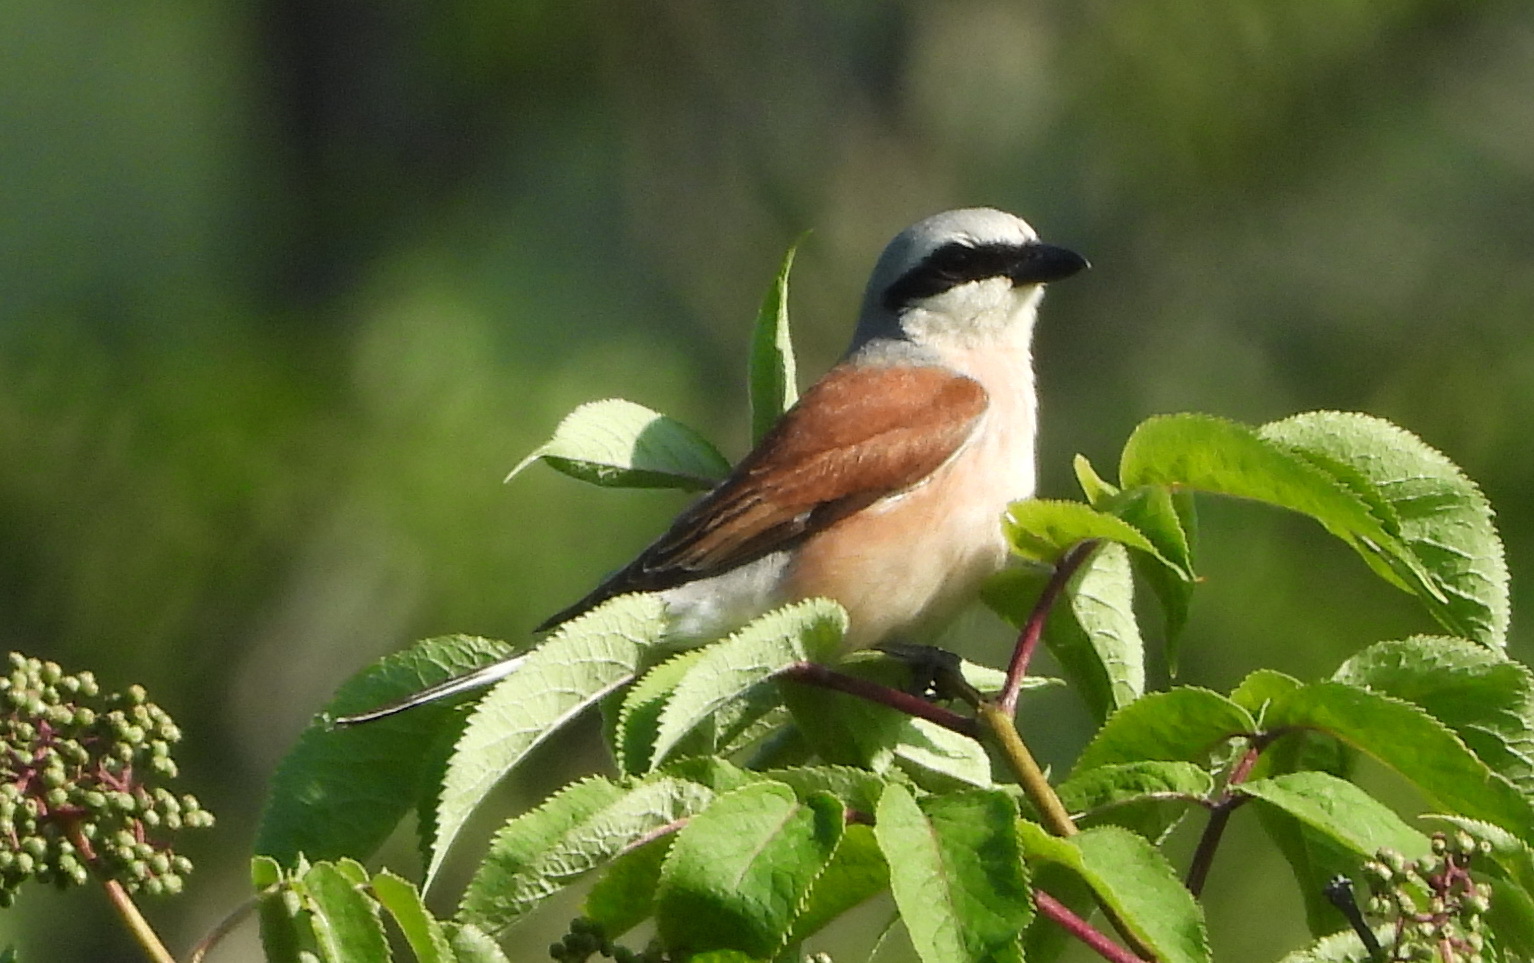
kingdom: Animalia
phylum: Chordata
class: Aves
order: Passeriformes
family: Laniidae
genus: Lanius
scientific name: Lanius collurio
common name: Red-backed shrike
